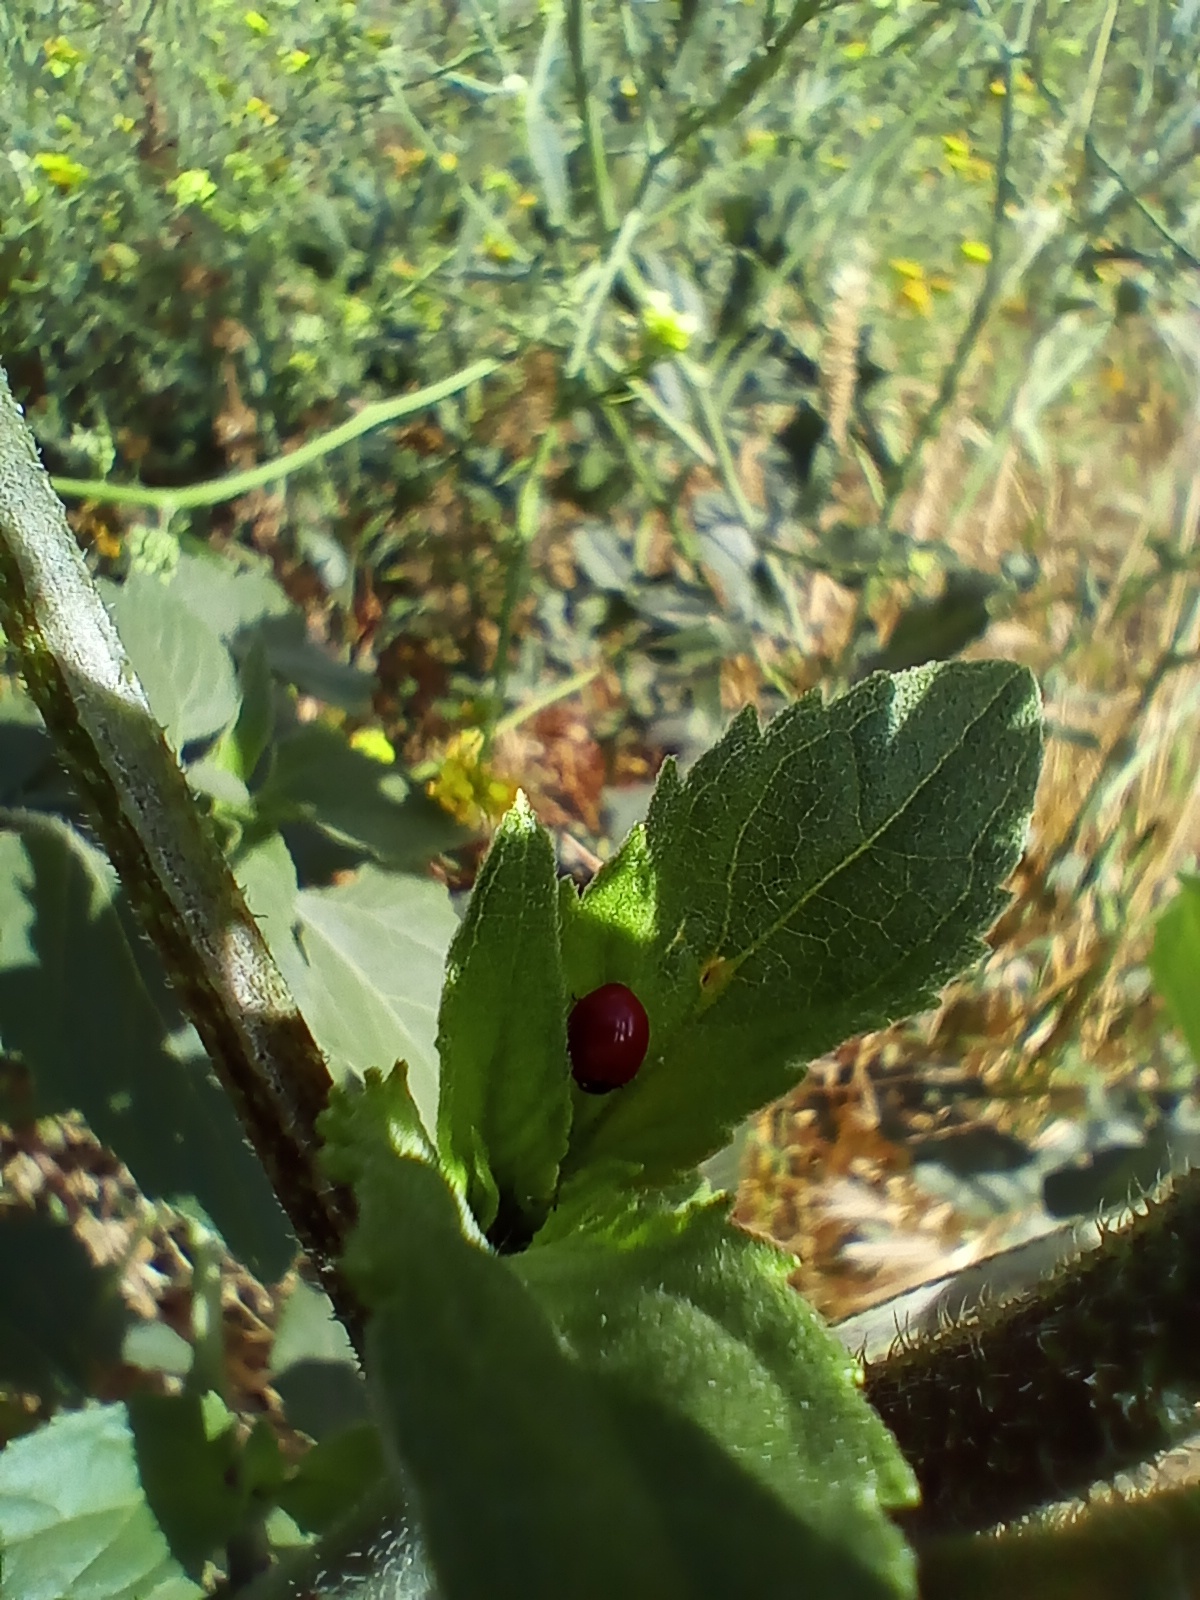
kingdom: Animalia
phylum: Arthropoda
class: Insecta
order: Coleoptera
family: Coccinellidae
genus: Cycloneda
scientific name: Cycloneda sanguinea
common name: Ladybird beetle
